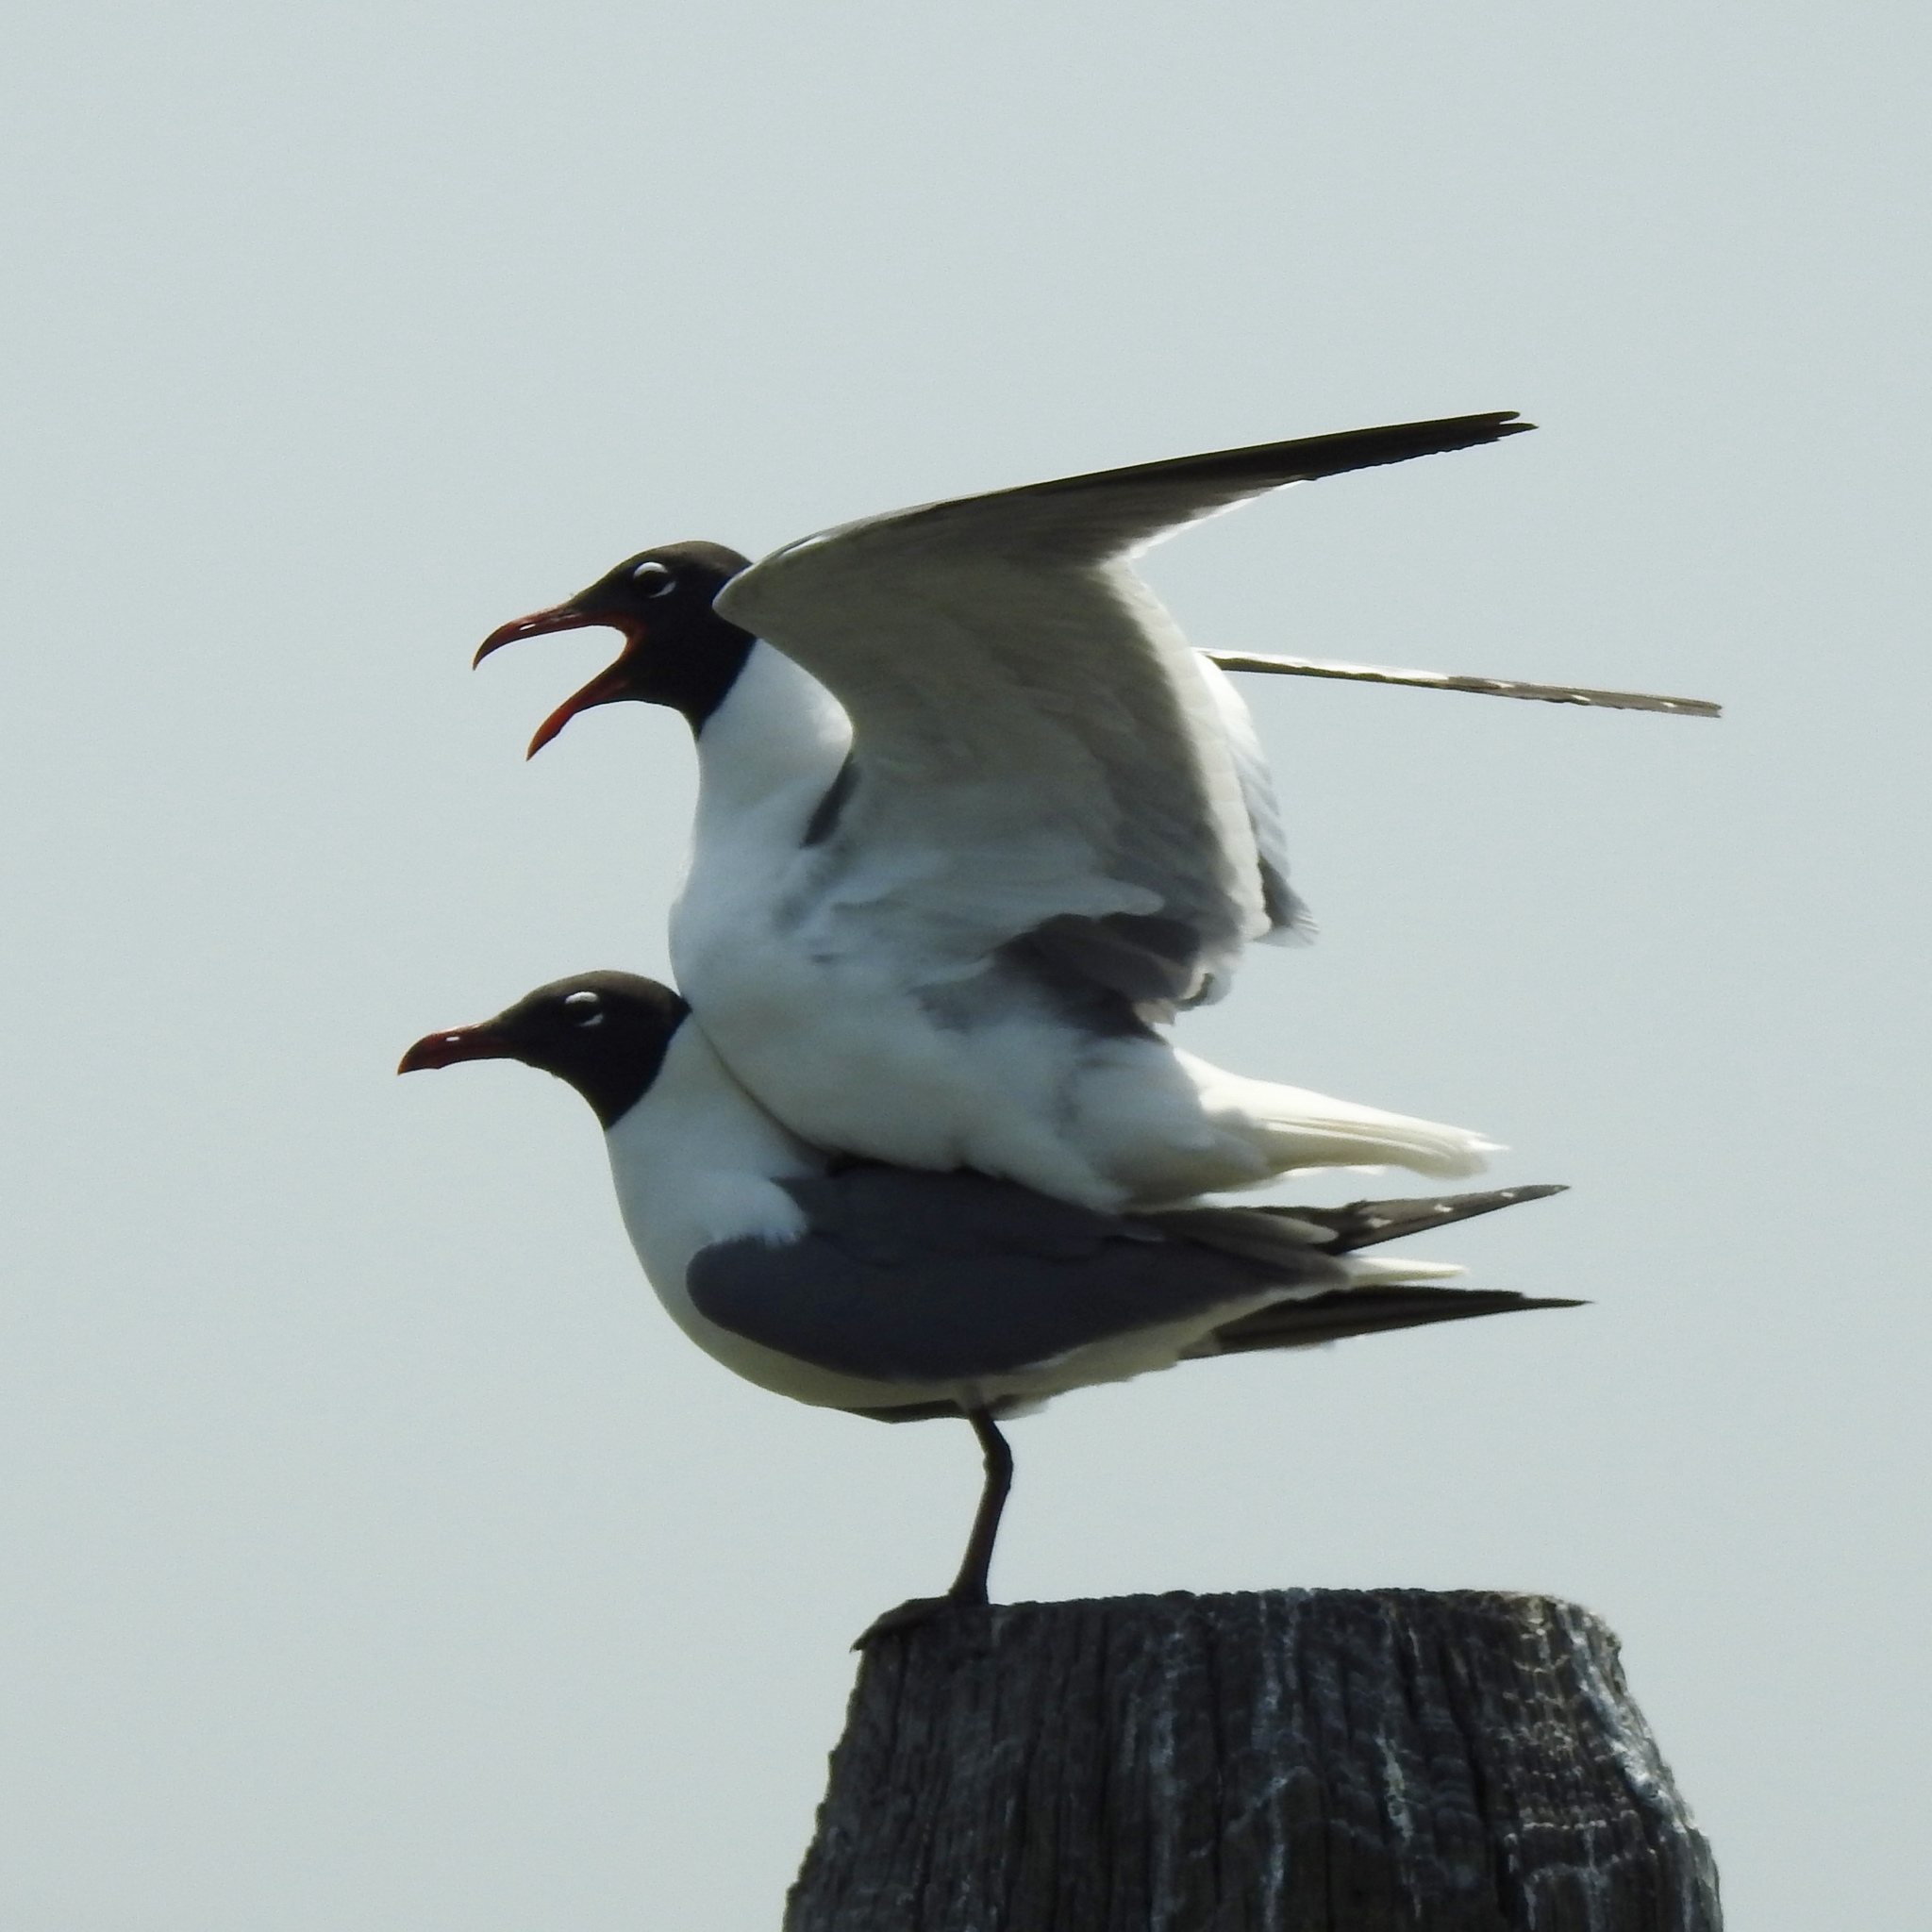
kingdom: Animalia
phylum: Chordata
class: Aves
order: Charadriiformes
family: Laridae
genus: Leucophaeus
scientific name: Leucophaeus atricilla
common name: Laughing gull
